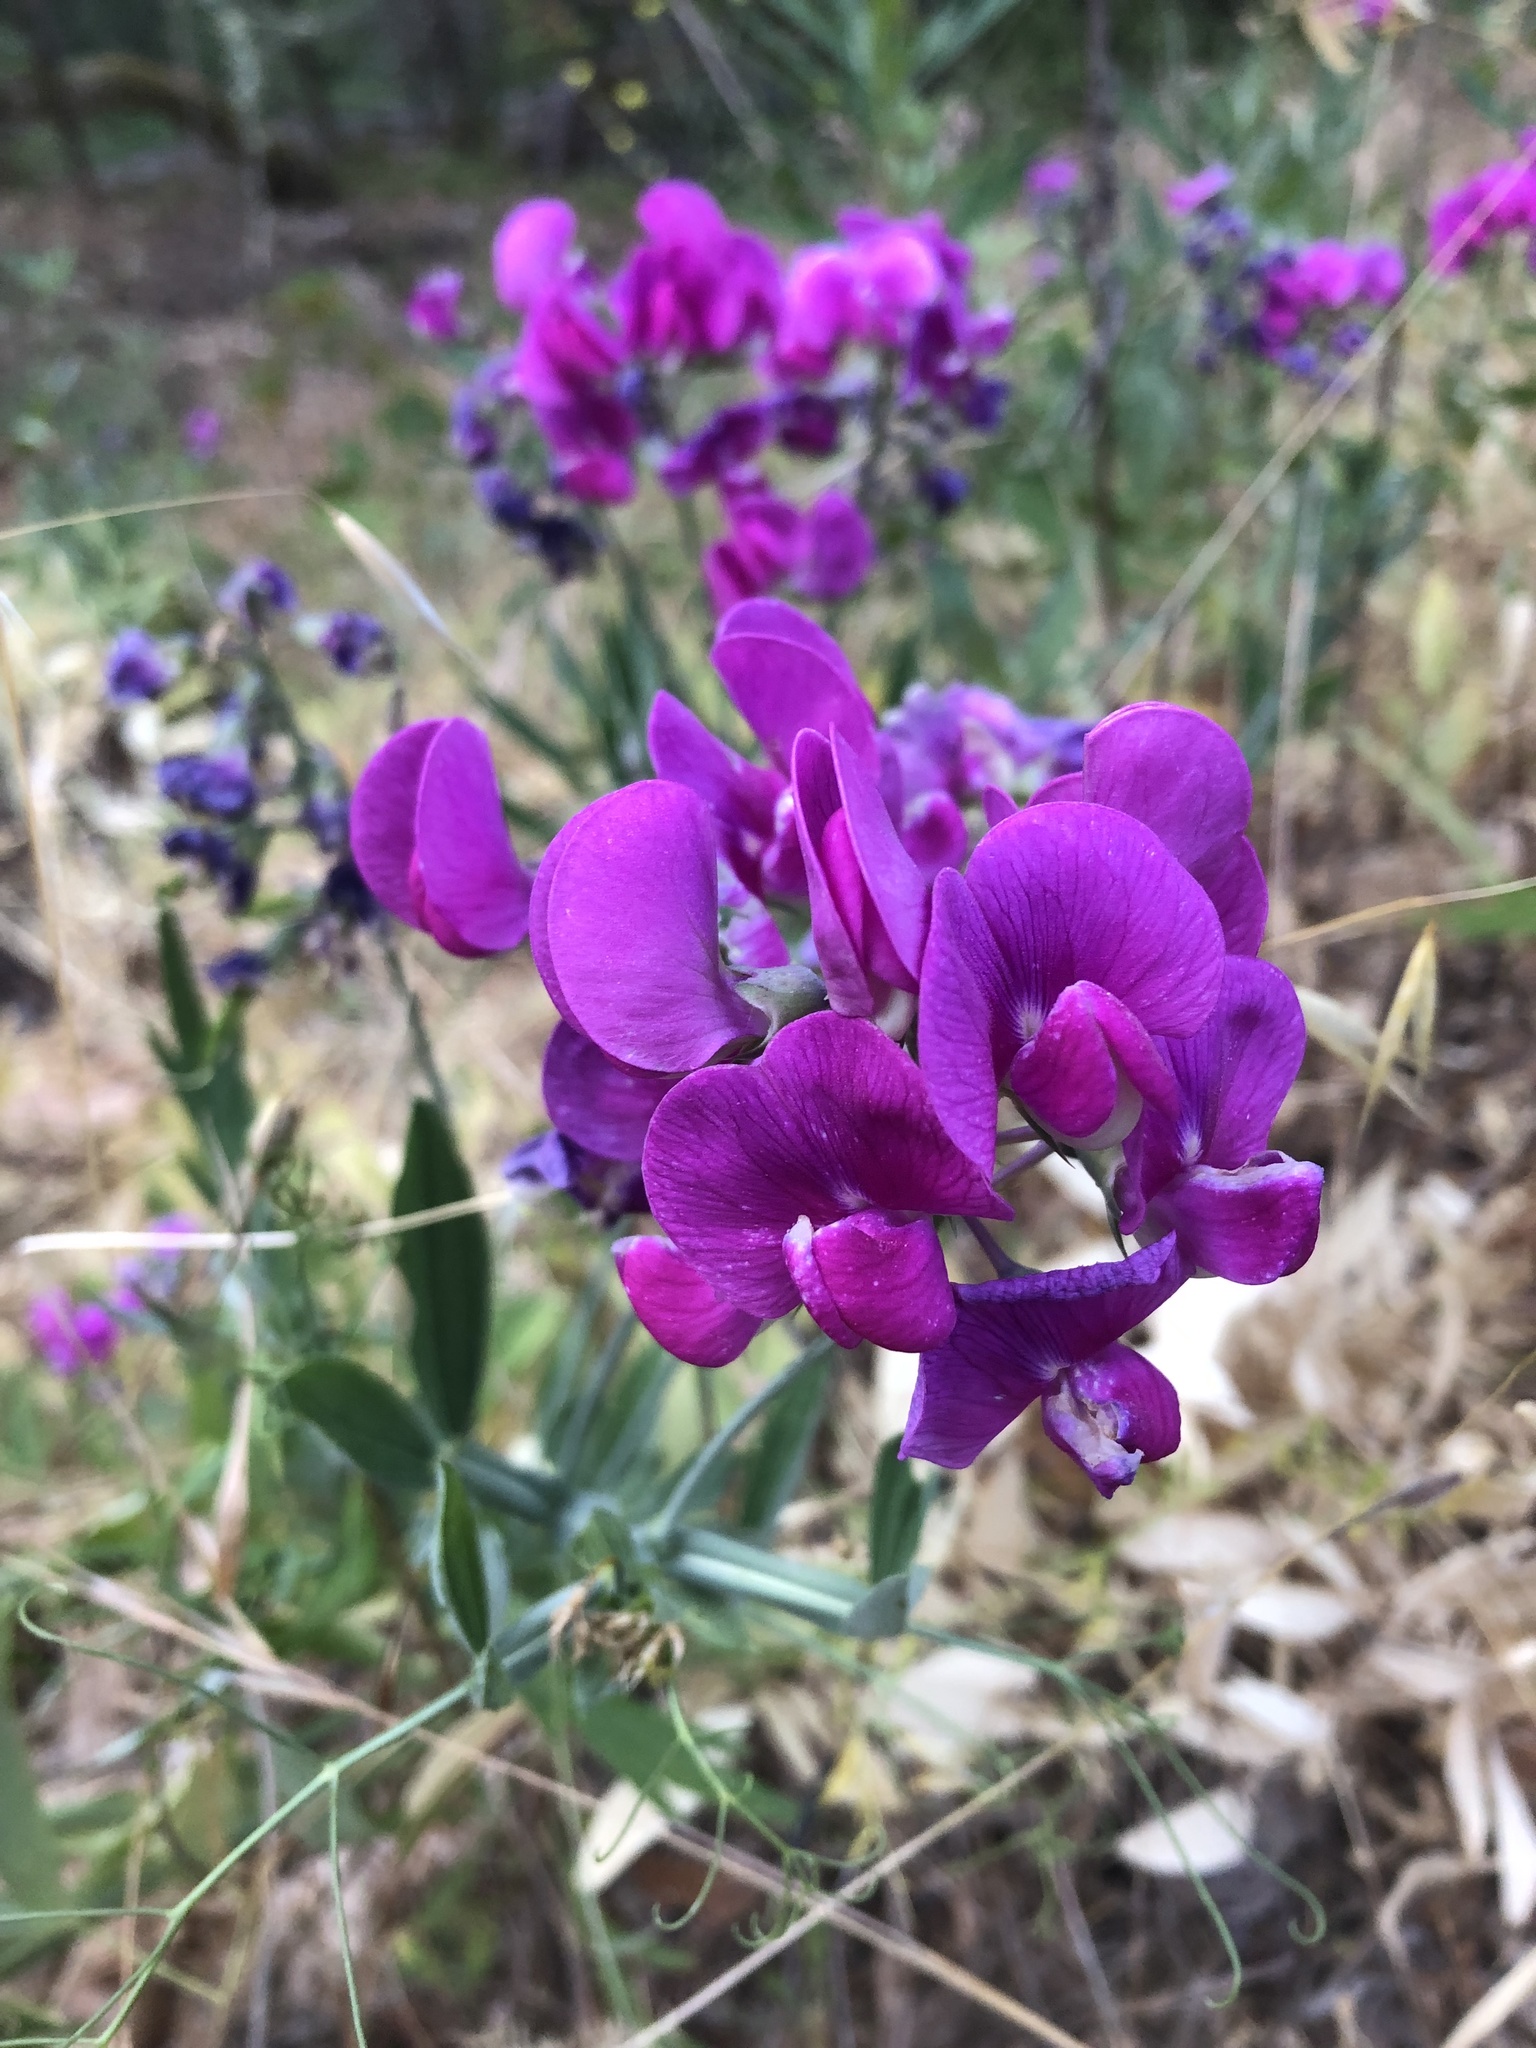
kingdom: Plantae
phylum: Tracheophyta
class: Magnoliopsida
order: Fabales
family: Fabaceae
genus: Lathyrus
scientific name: Lathyrus latifolius
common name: Perennial pea
